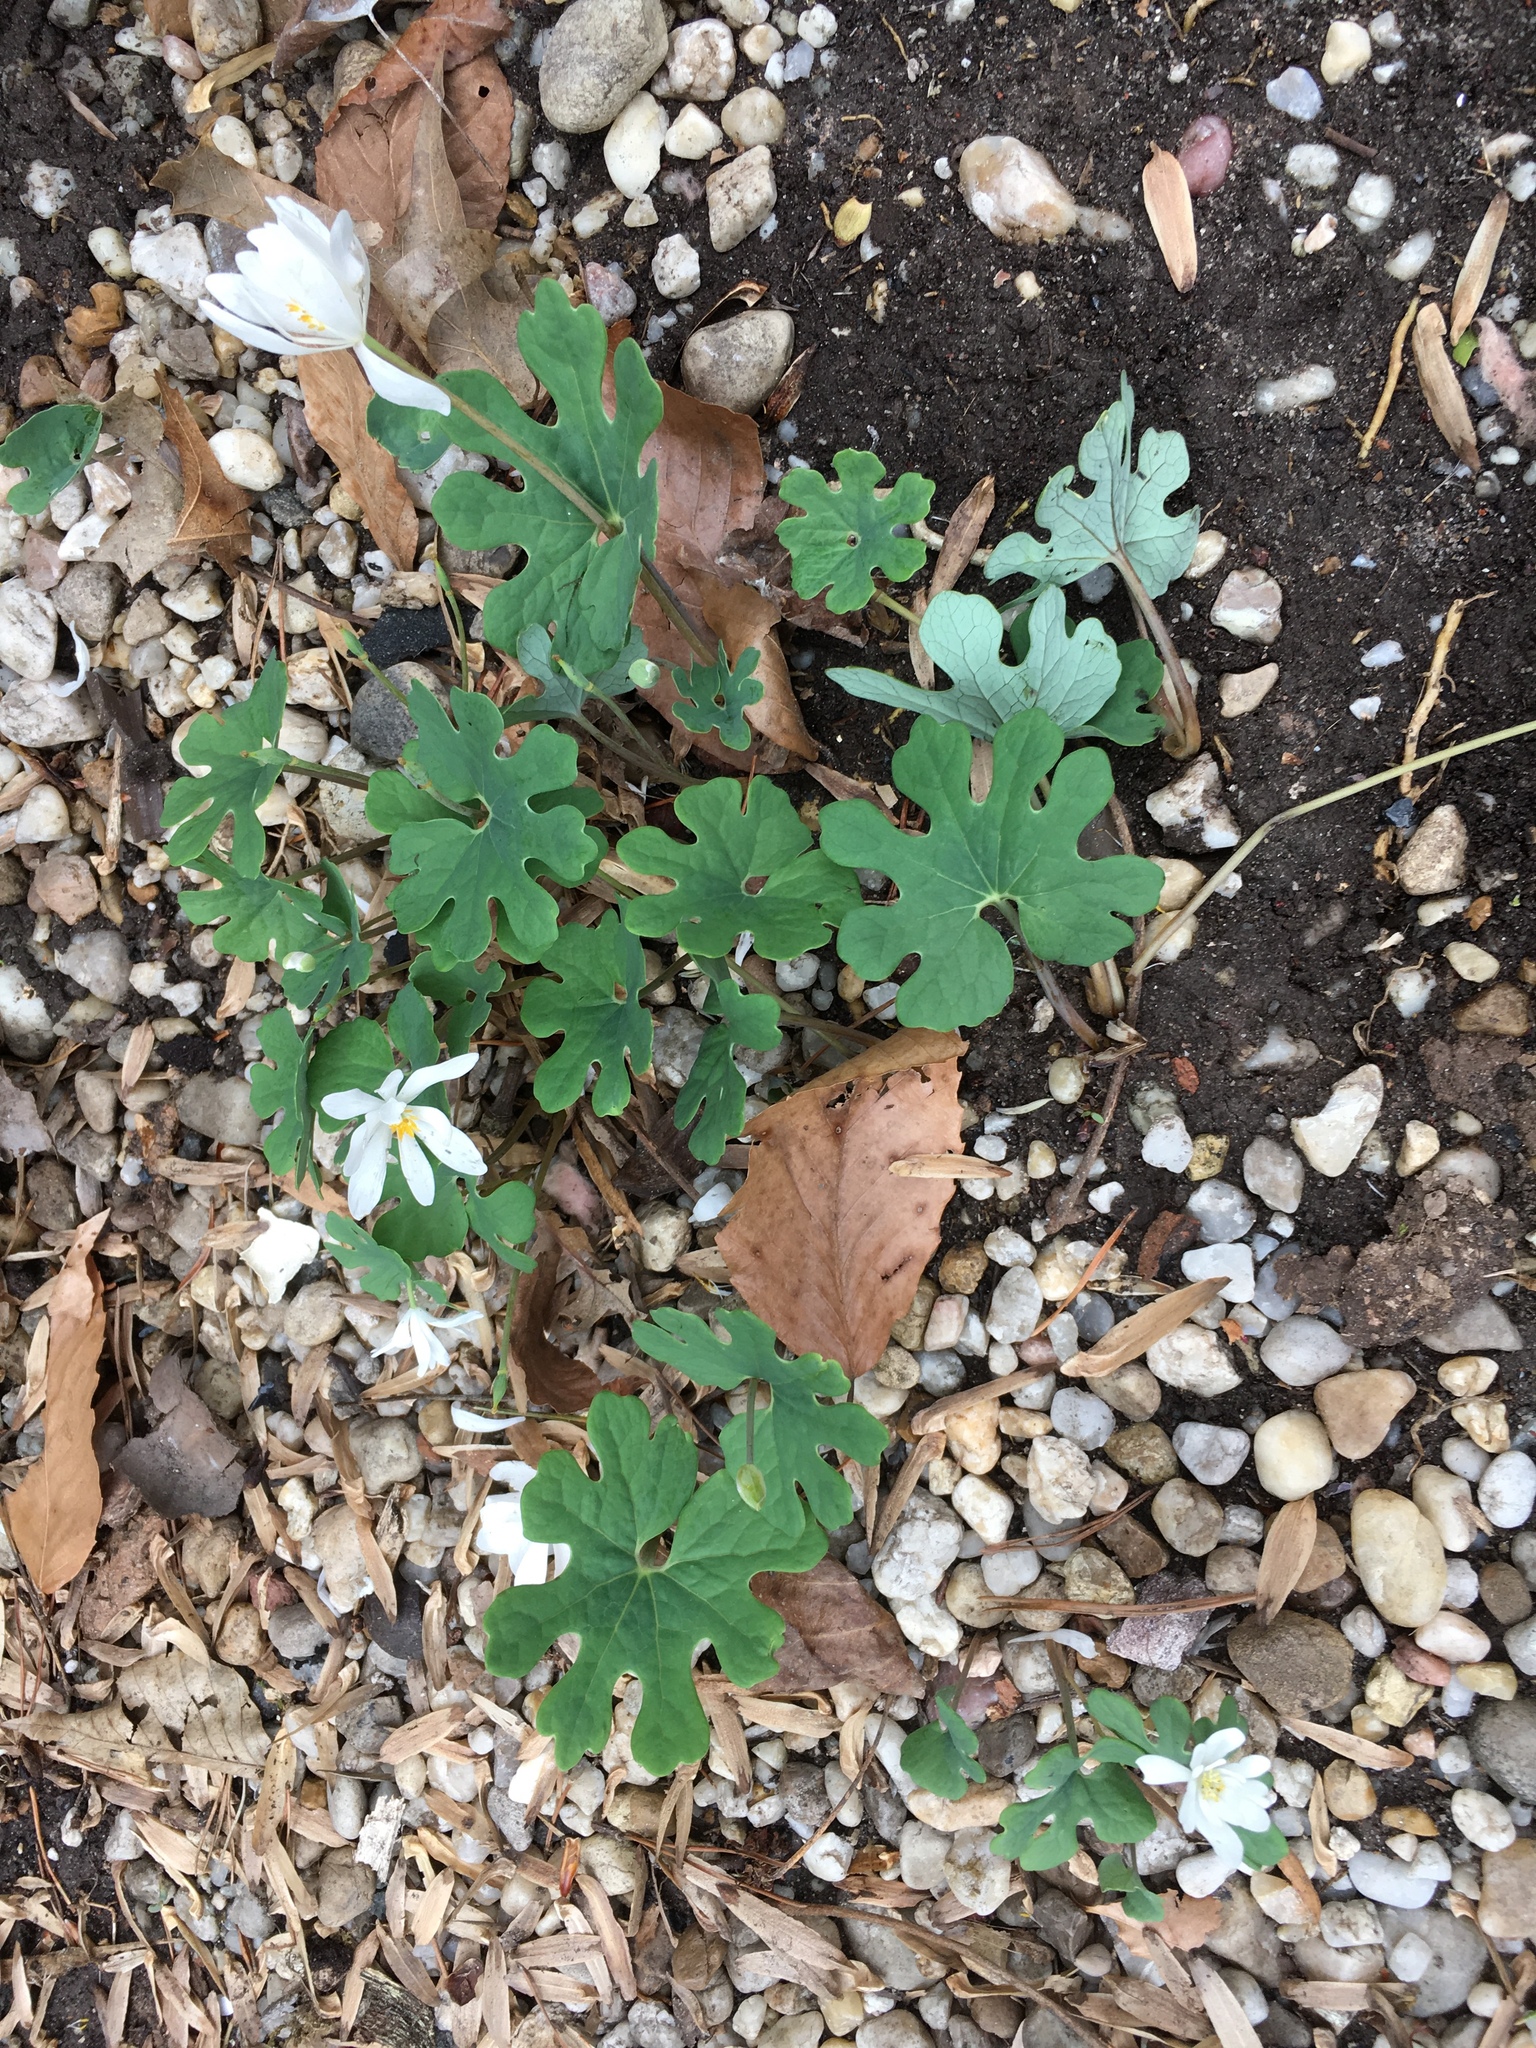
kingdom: Plantae
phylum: Tracheophyta
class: Magnoliopsida
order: Ranunculales
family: Papaveraceae
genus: Sanguinaria
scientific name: Sanguinaria canadensis
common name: Bloodroot
